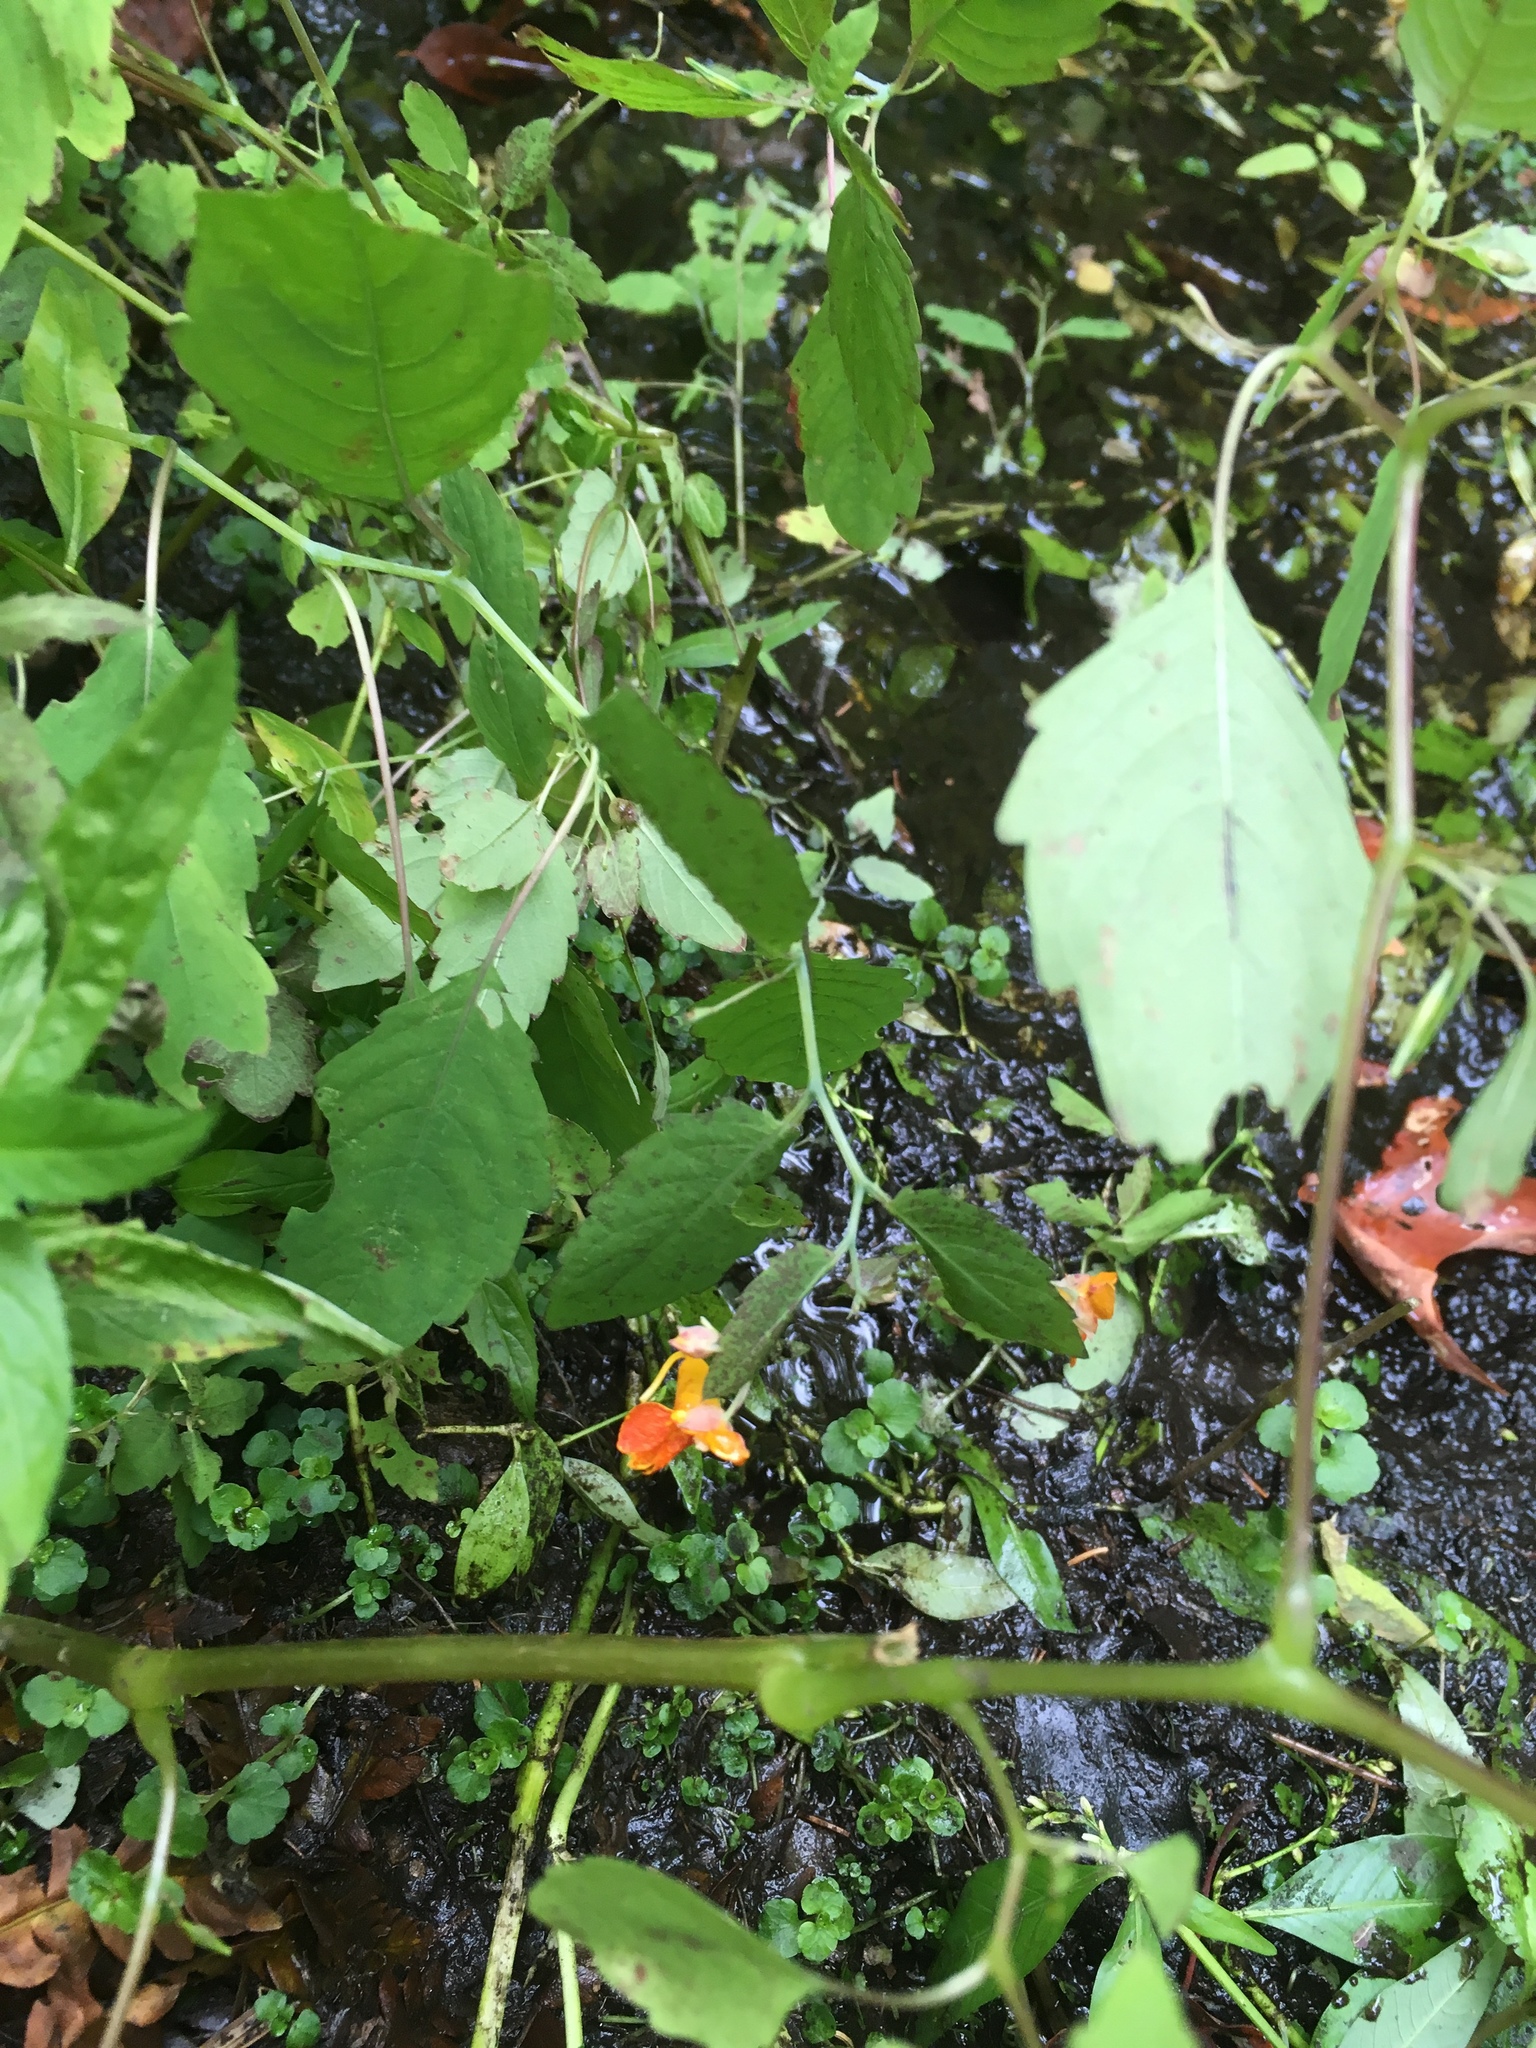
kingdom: Plantae
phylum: Tracheophyta
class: Magnoliopsida
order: Ericales
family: Balsaminaceae
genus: Impatiens
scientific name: Impatiens capensis
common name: Orange balsam
